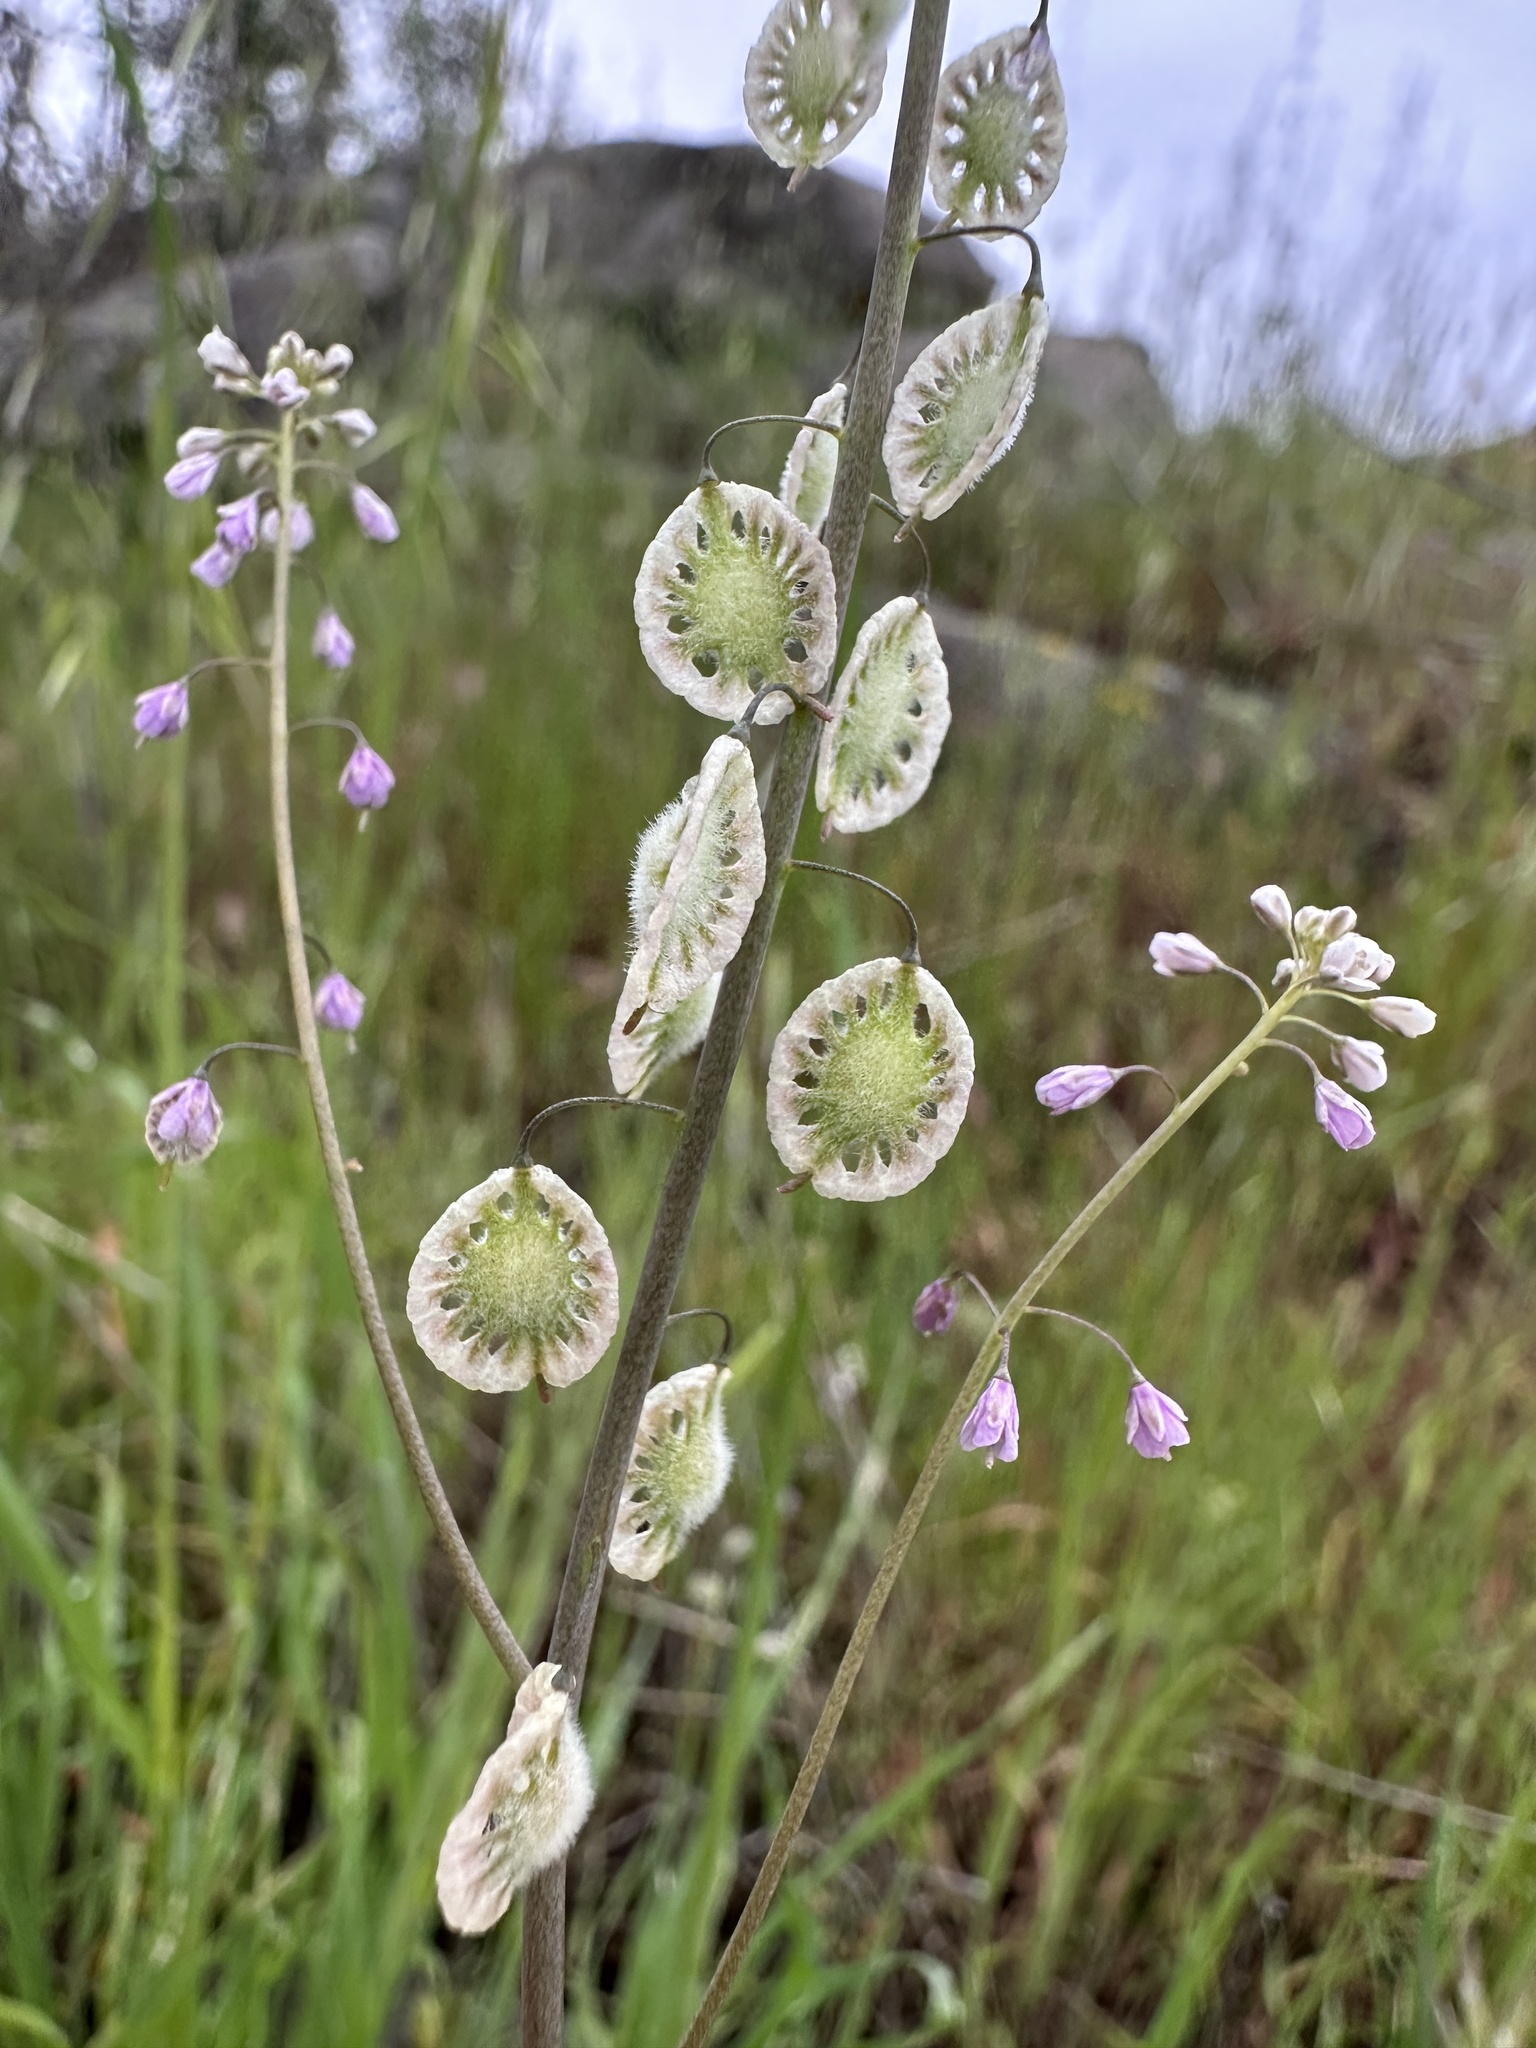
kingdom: Plantae
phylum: Tracheophyta
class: Magnoliopsida
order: Brassicales
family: Brassicaceae
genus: Thysanocarpus
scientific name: Thysanocarpus curvipes
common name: Sand fringepod
